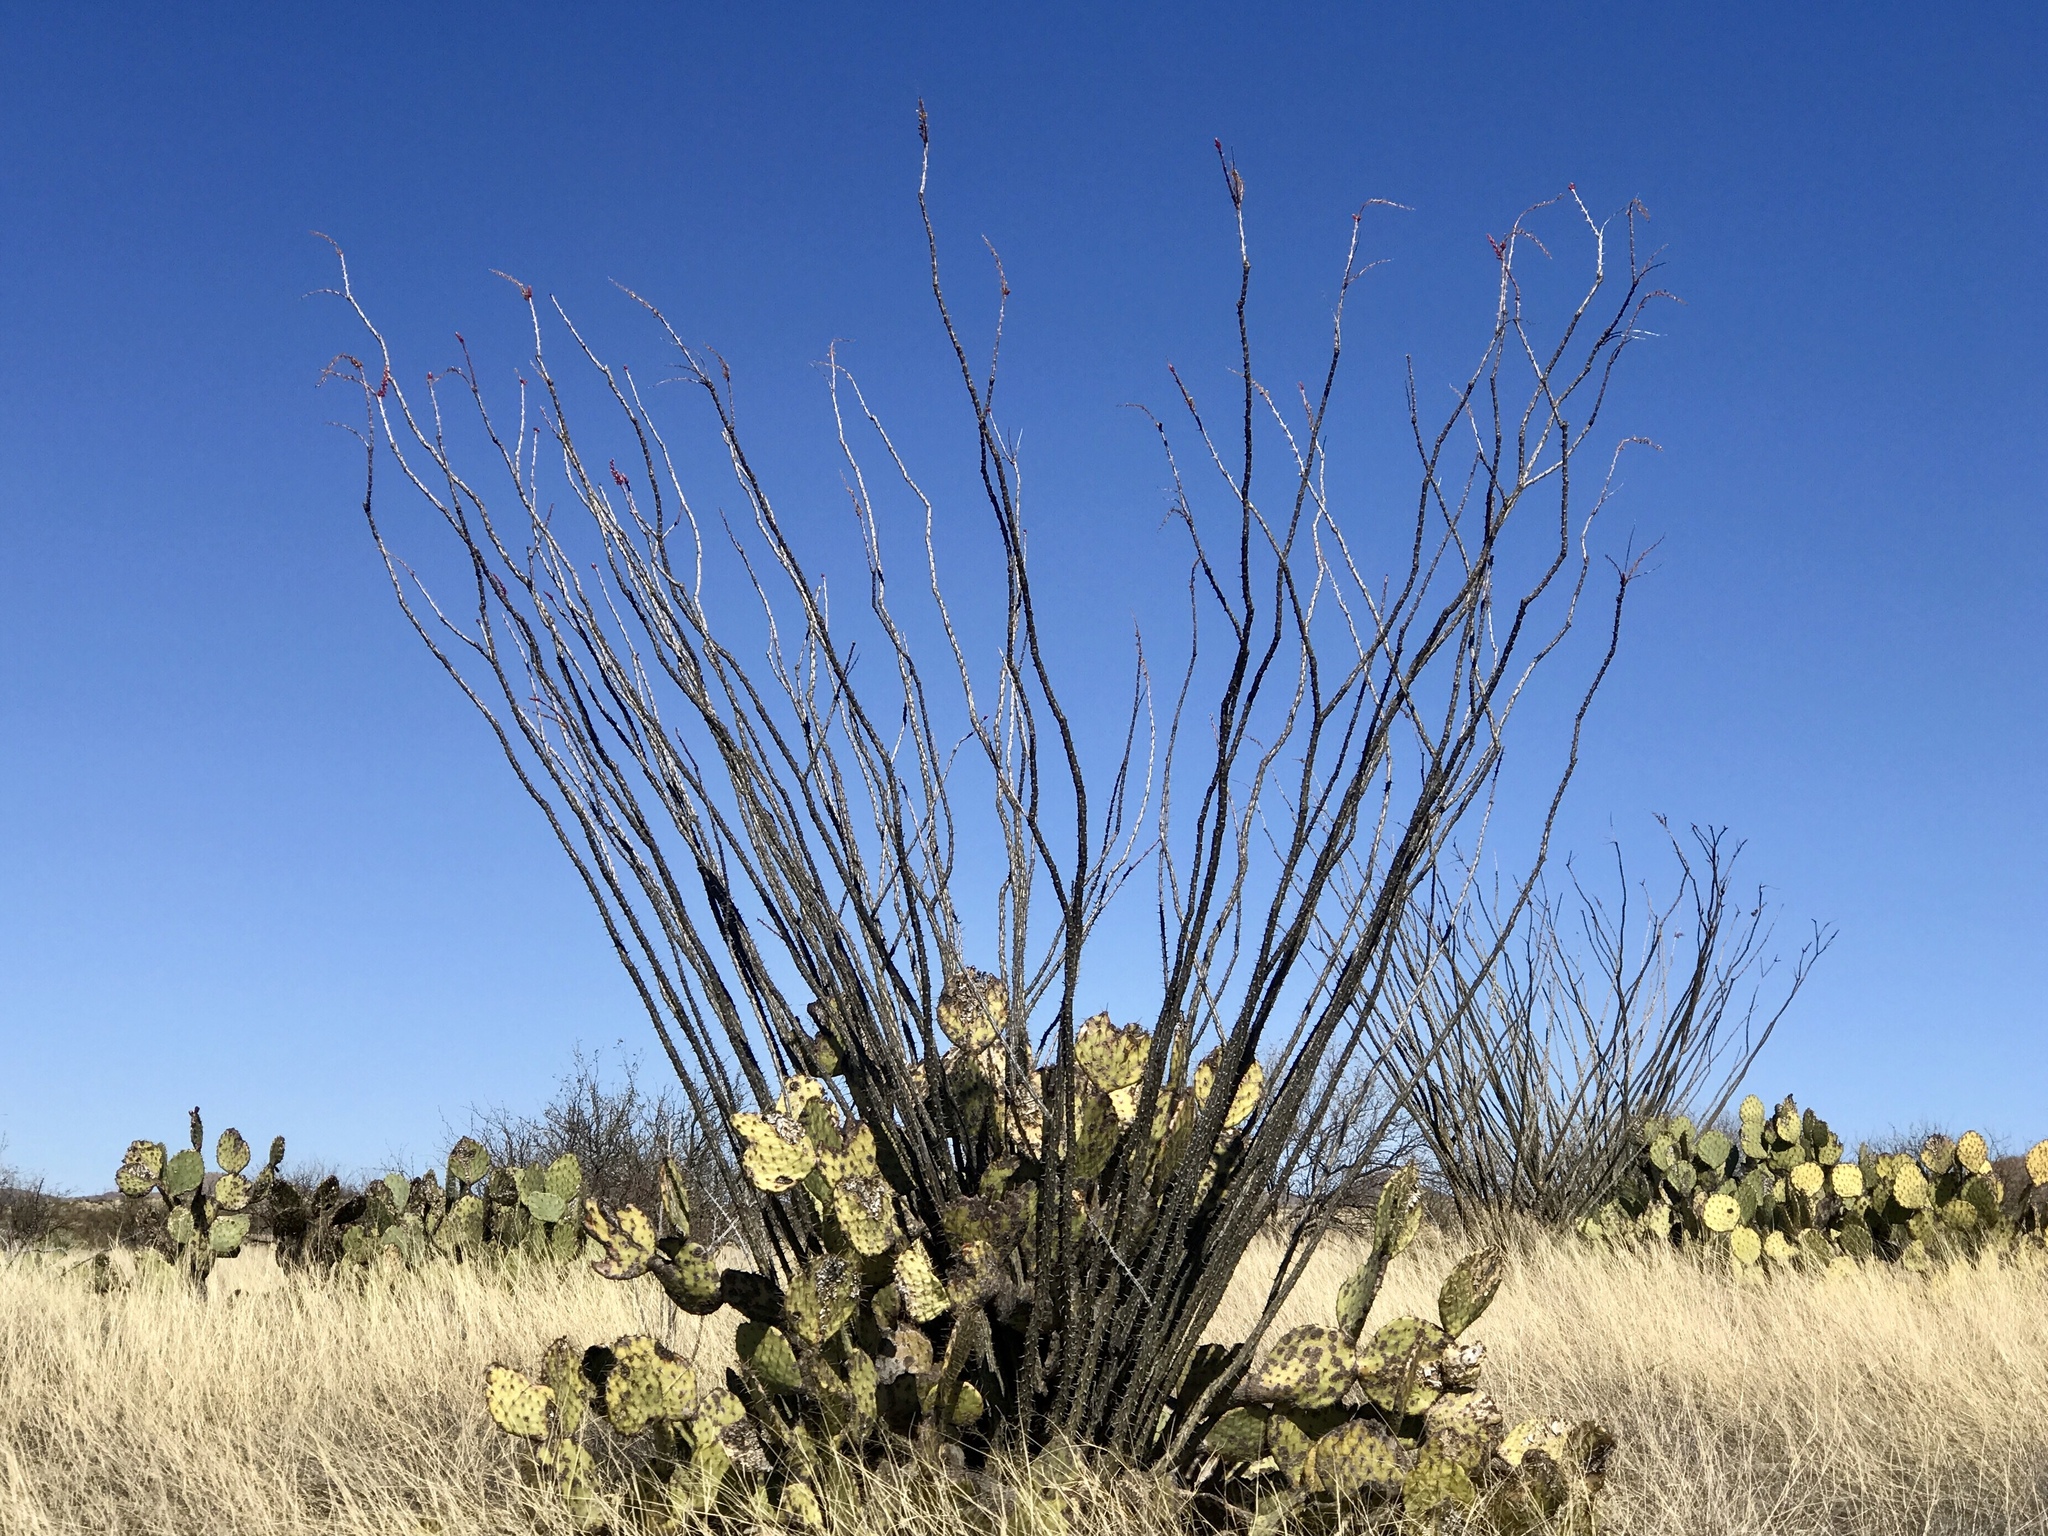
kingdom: Plantae
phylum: Tracheophyta
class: Magnoliopsida
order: Ericales
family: Fouquieriaceae
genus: Fouquieria
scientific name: Fouquieria splendens
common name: Vine-cactus
